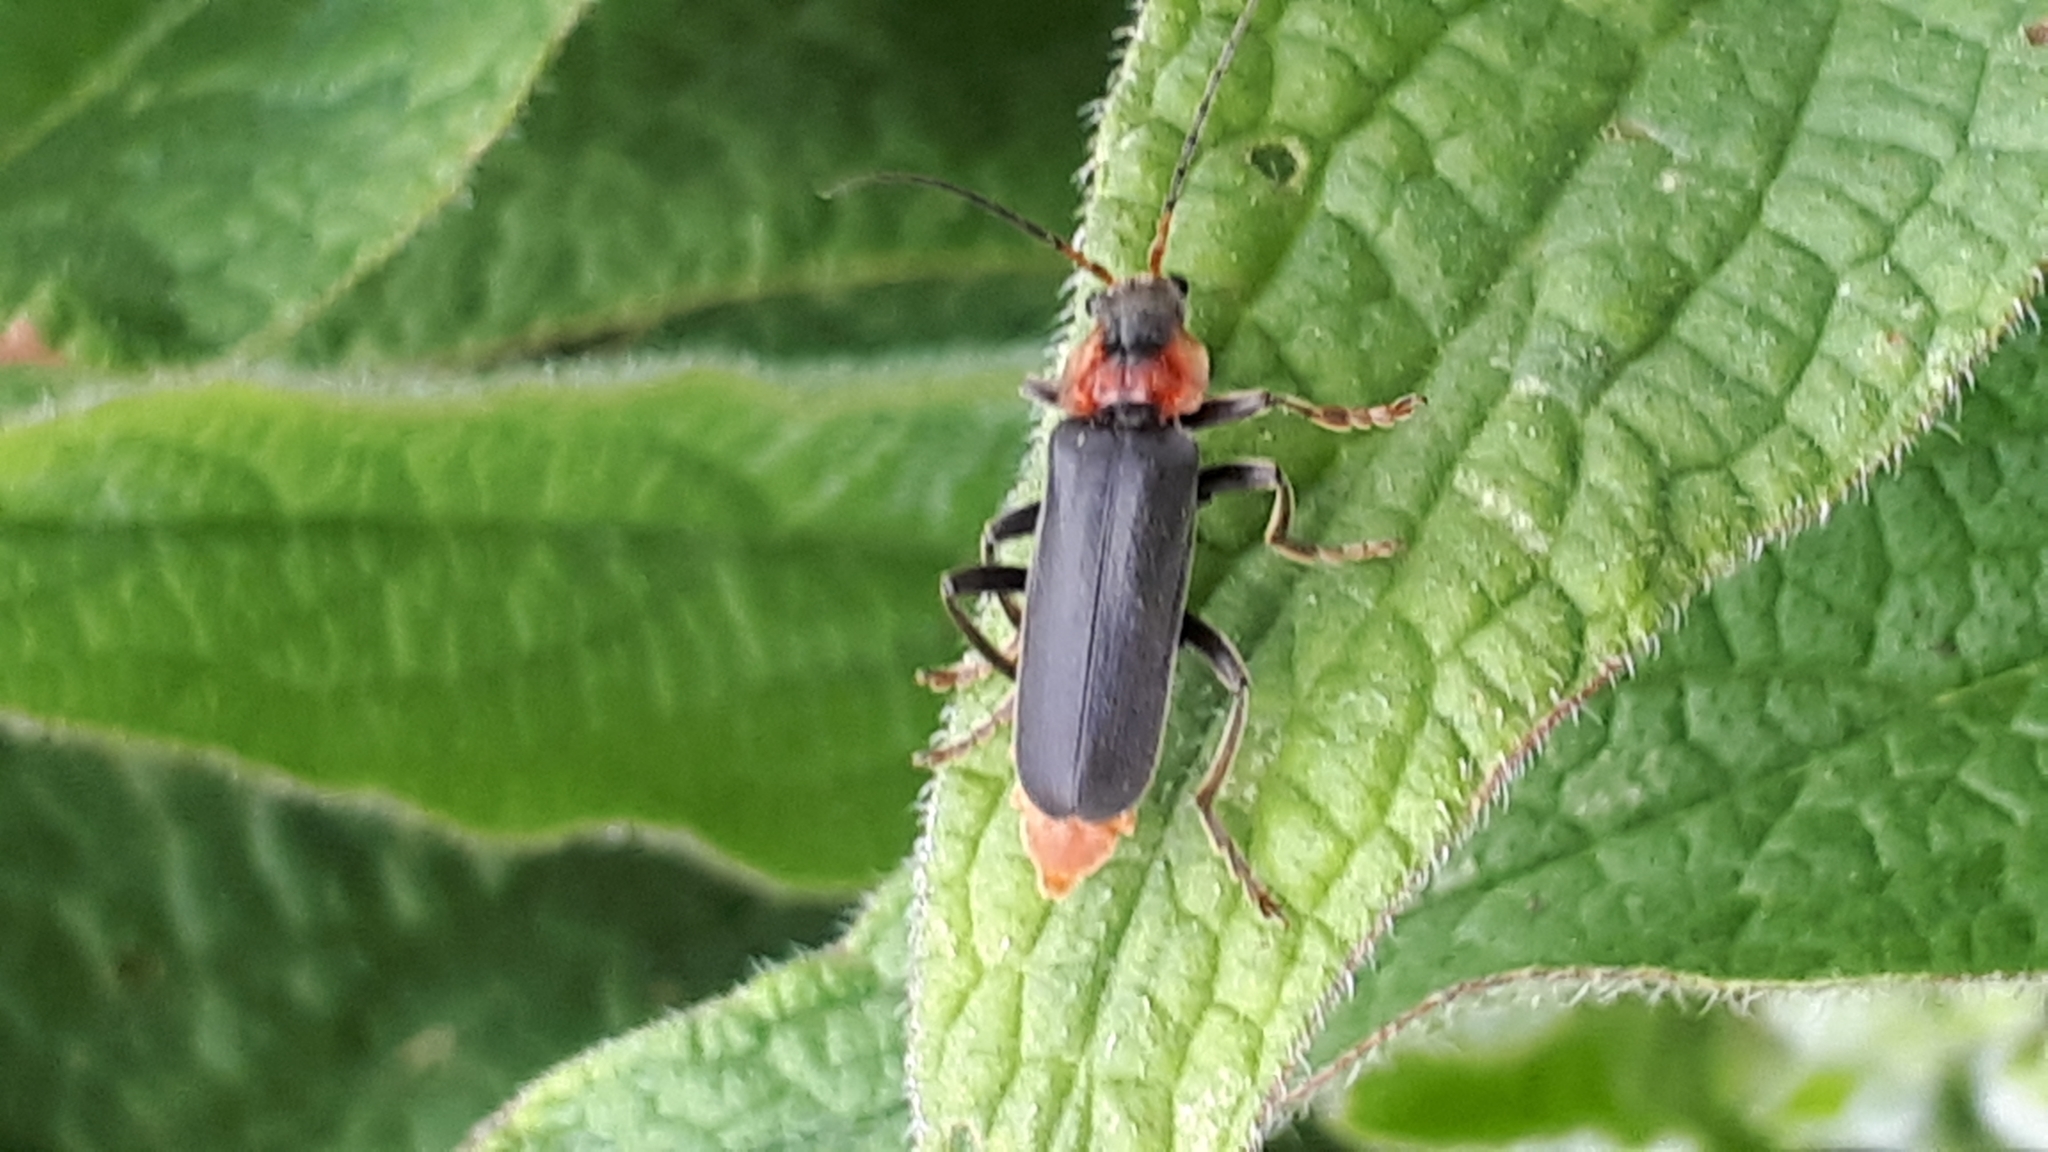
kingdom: Animalia
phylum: Arthropoda
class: Insecta
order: Coleoptera
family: Cantharidae
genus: Cantharis
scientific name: Cantharis fusca
